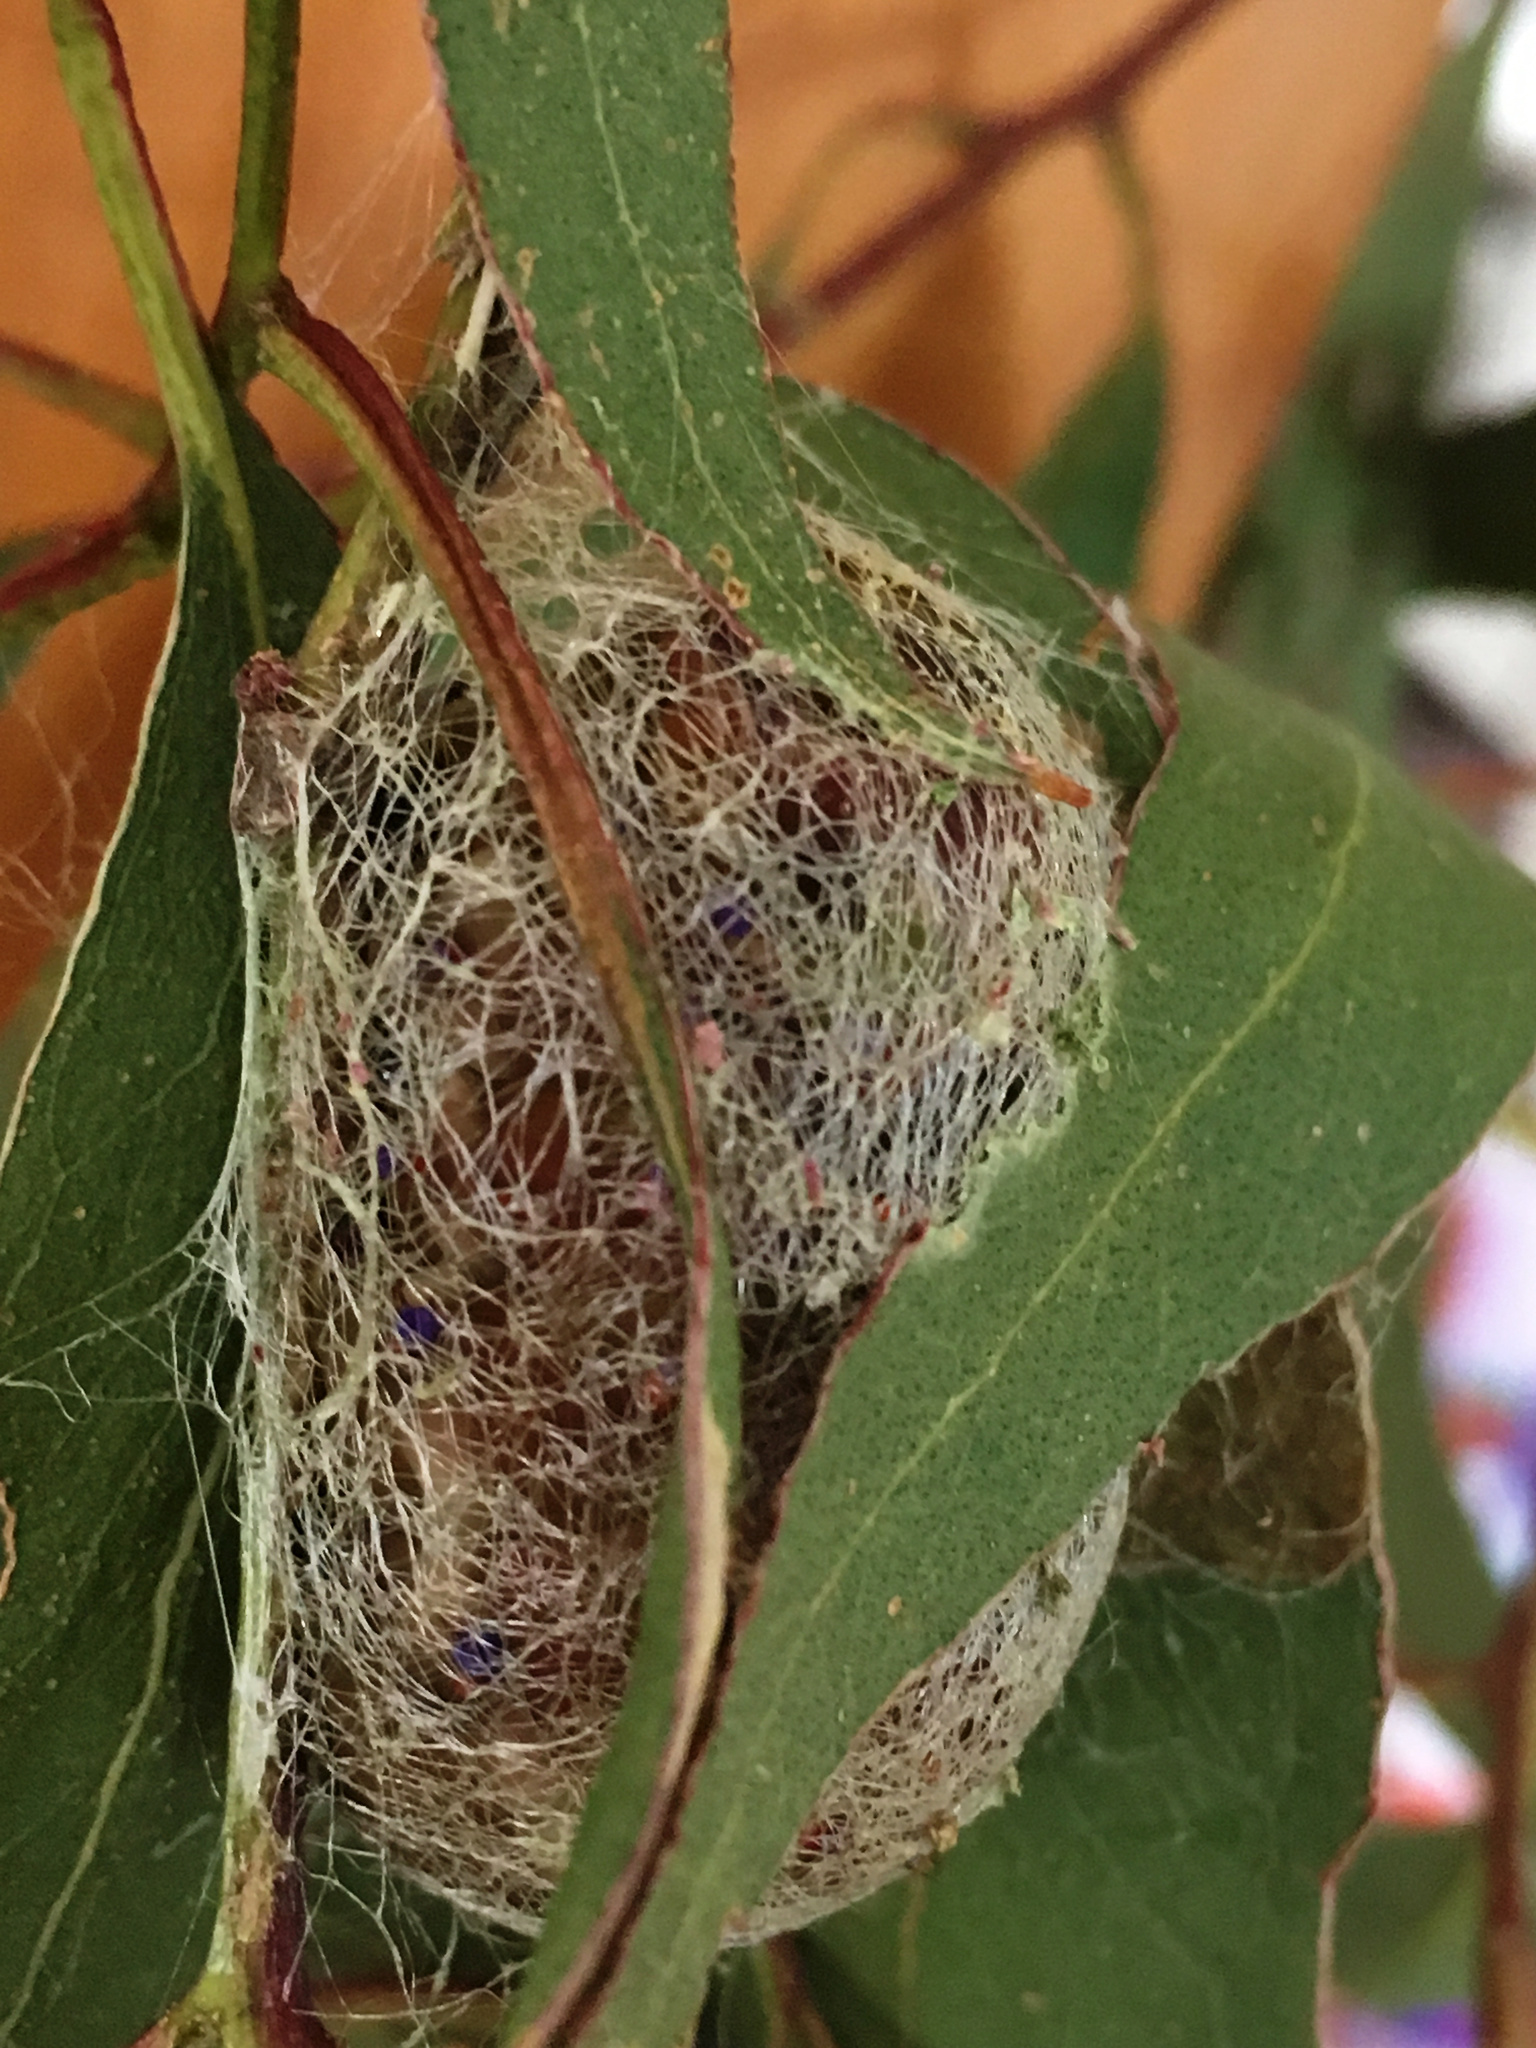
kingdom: Animalia
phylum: Arthropoda
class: Insecta
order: Lepidoptera
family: Saturniidae
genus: Opodiphthera
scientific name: Opodiphthera
